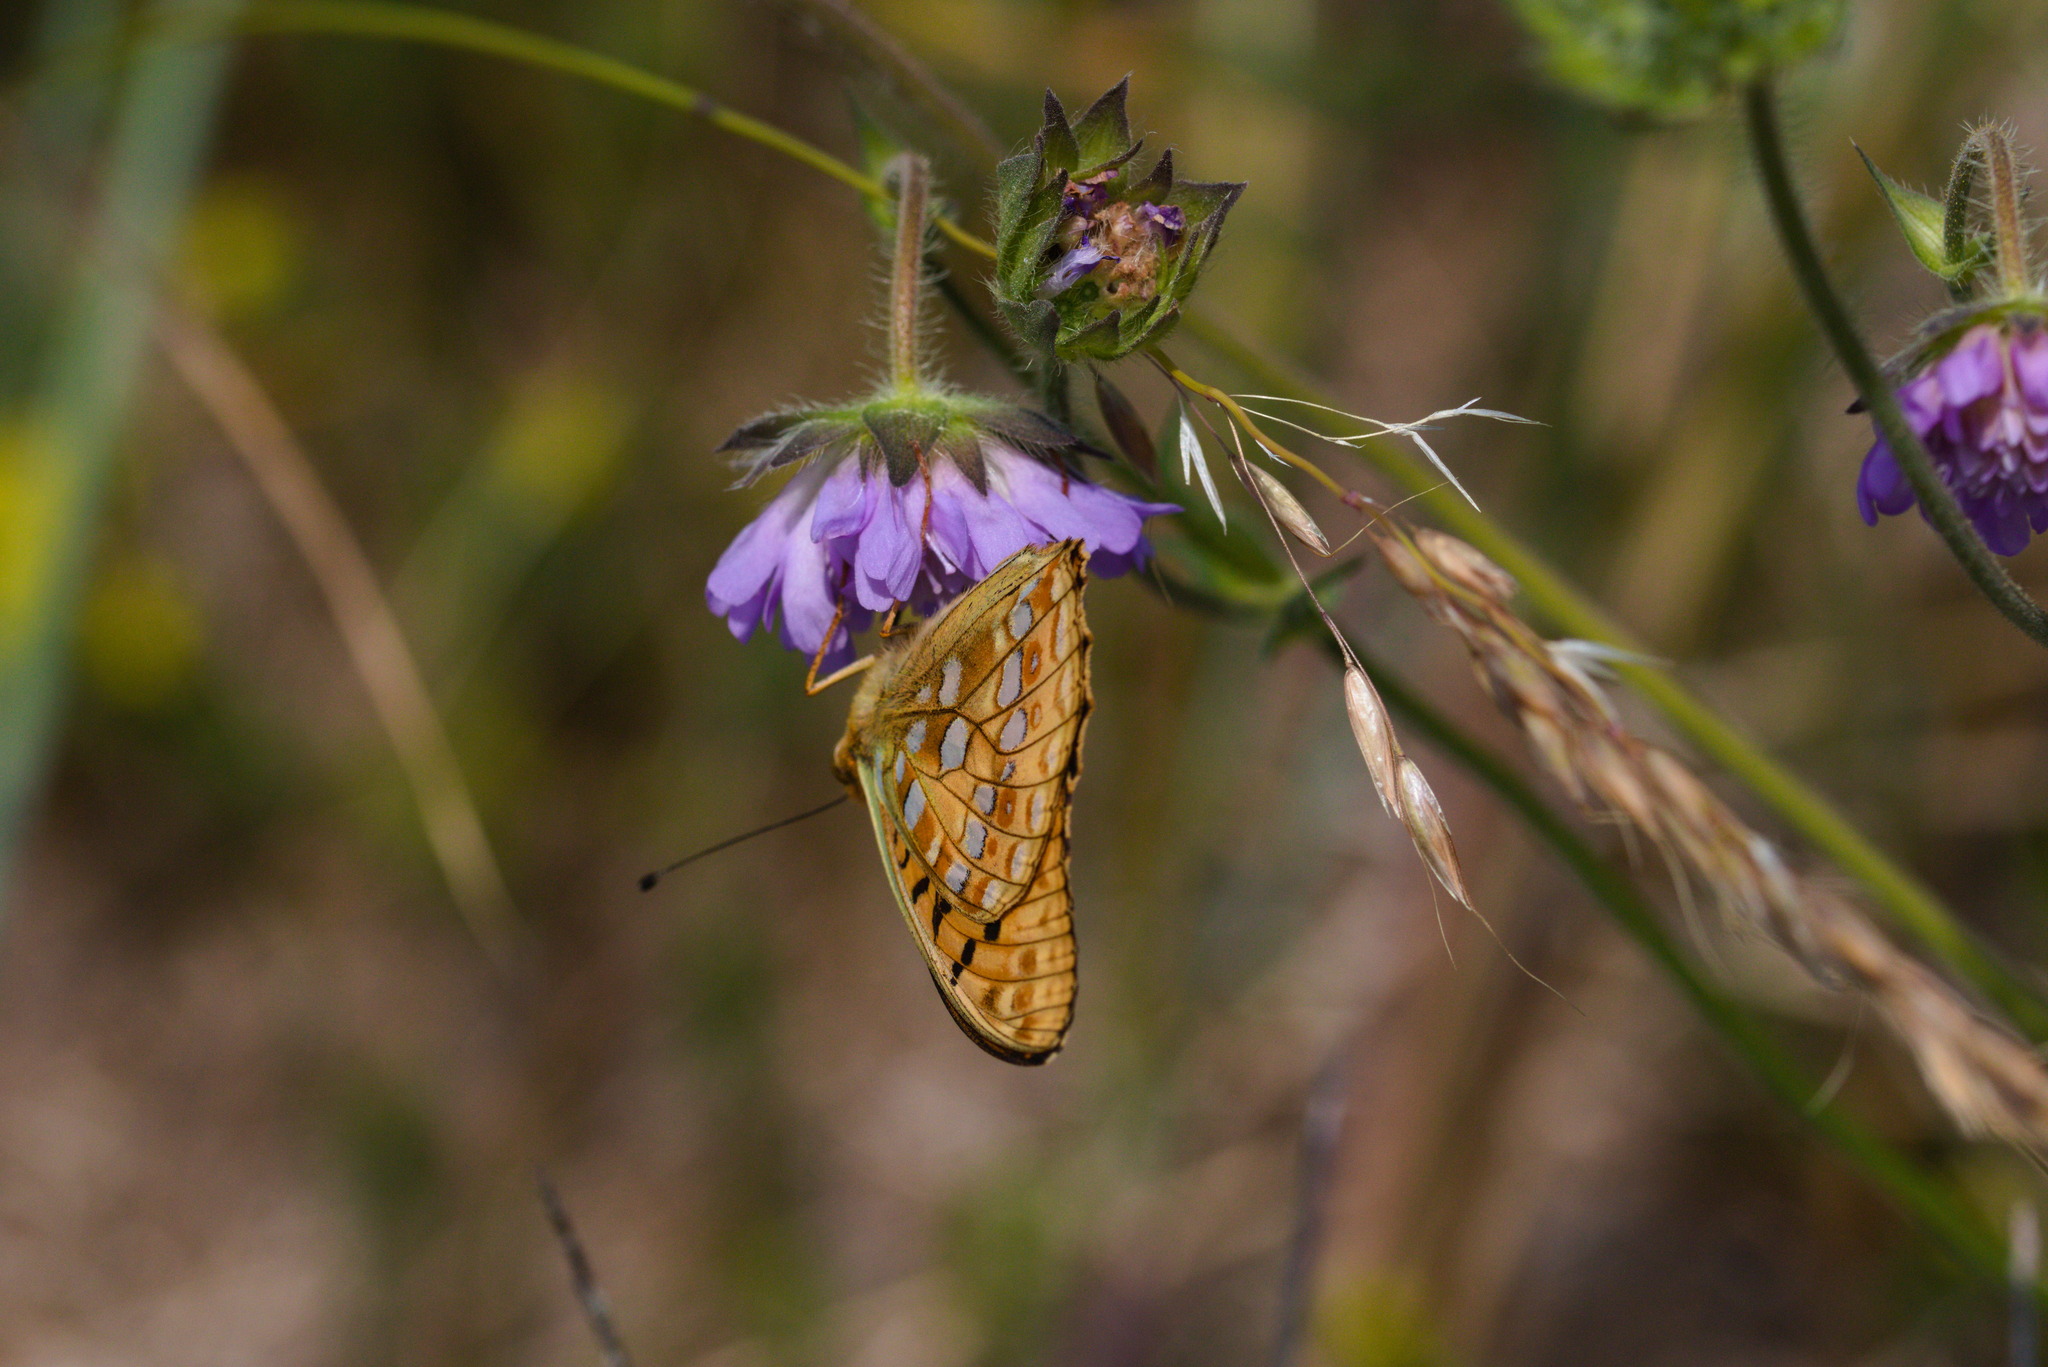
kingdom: Animalia
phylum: Arthropoda
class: Insecta
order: Lepidoptera
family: Nymphalidae
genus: Fabriciana
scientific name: Fabriciana adippe
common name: High brown fritillary
